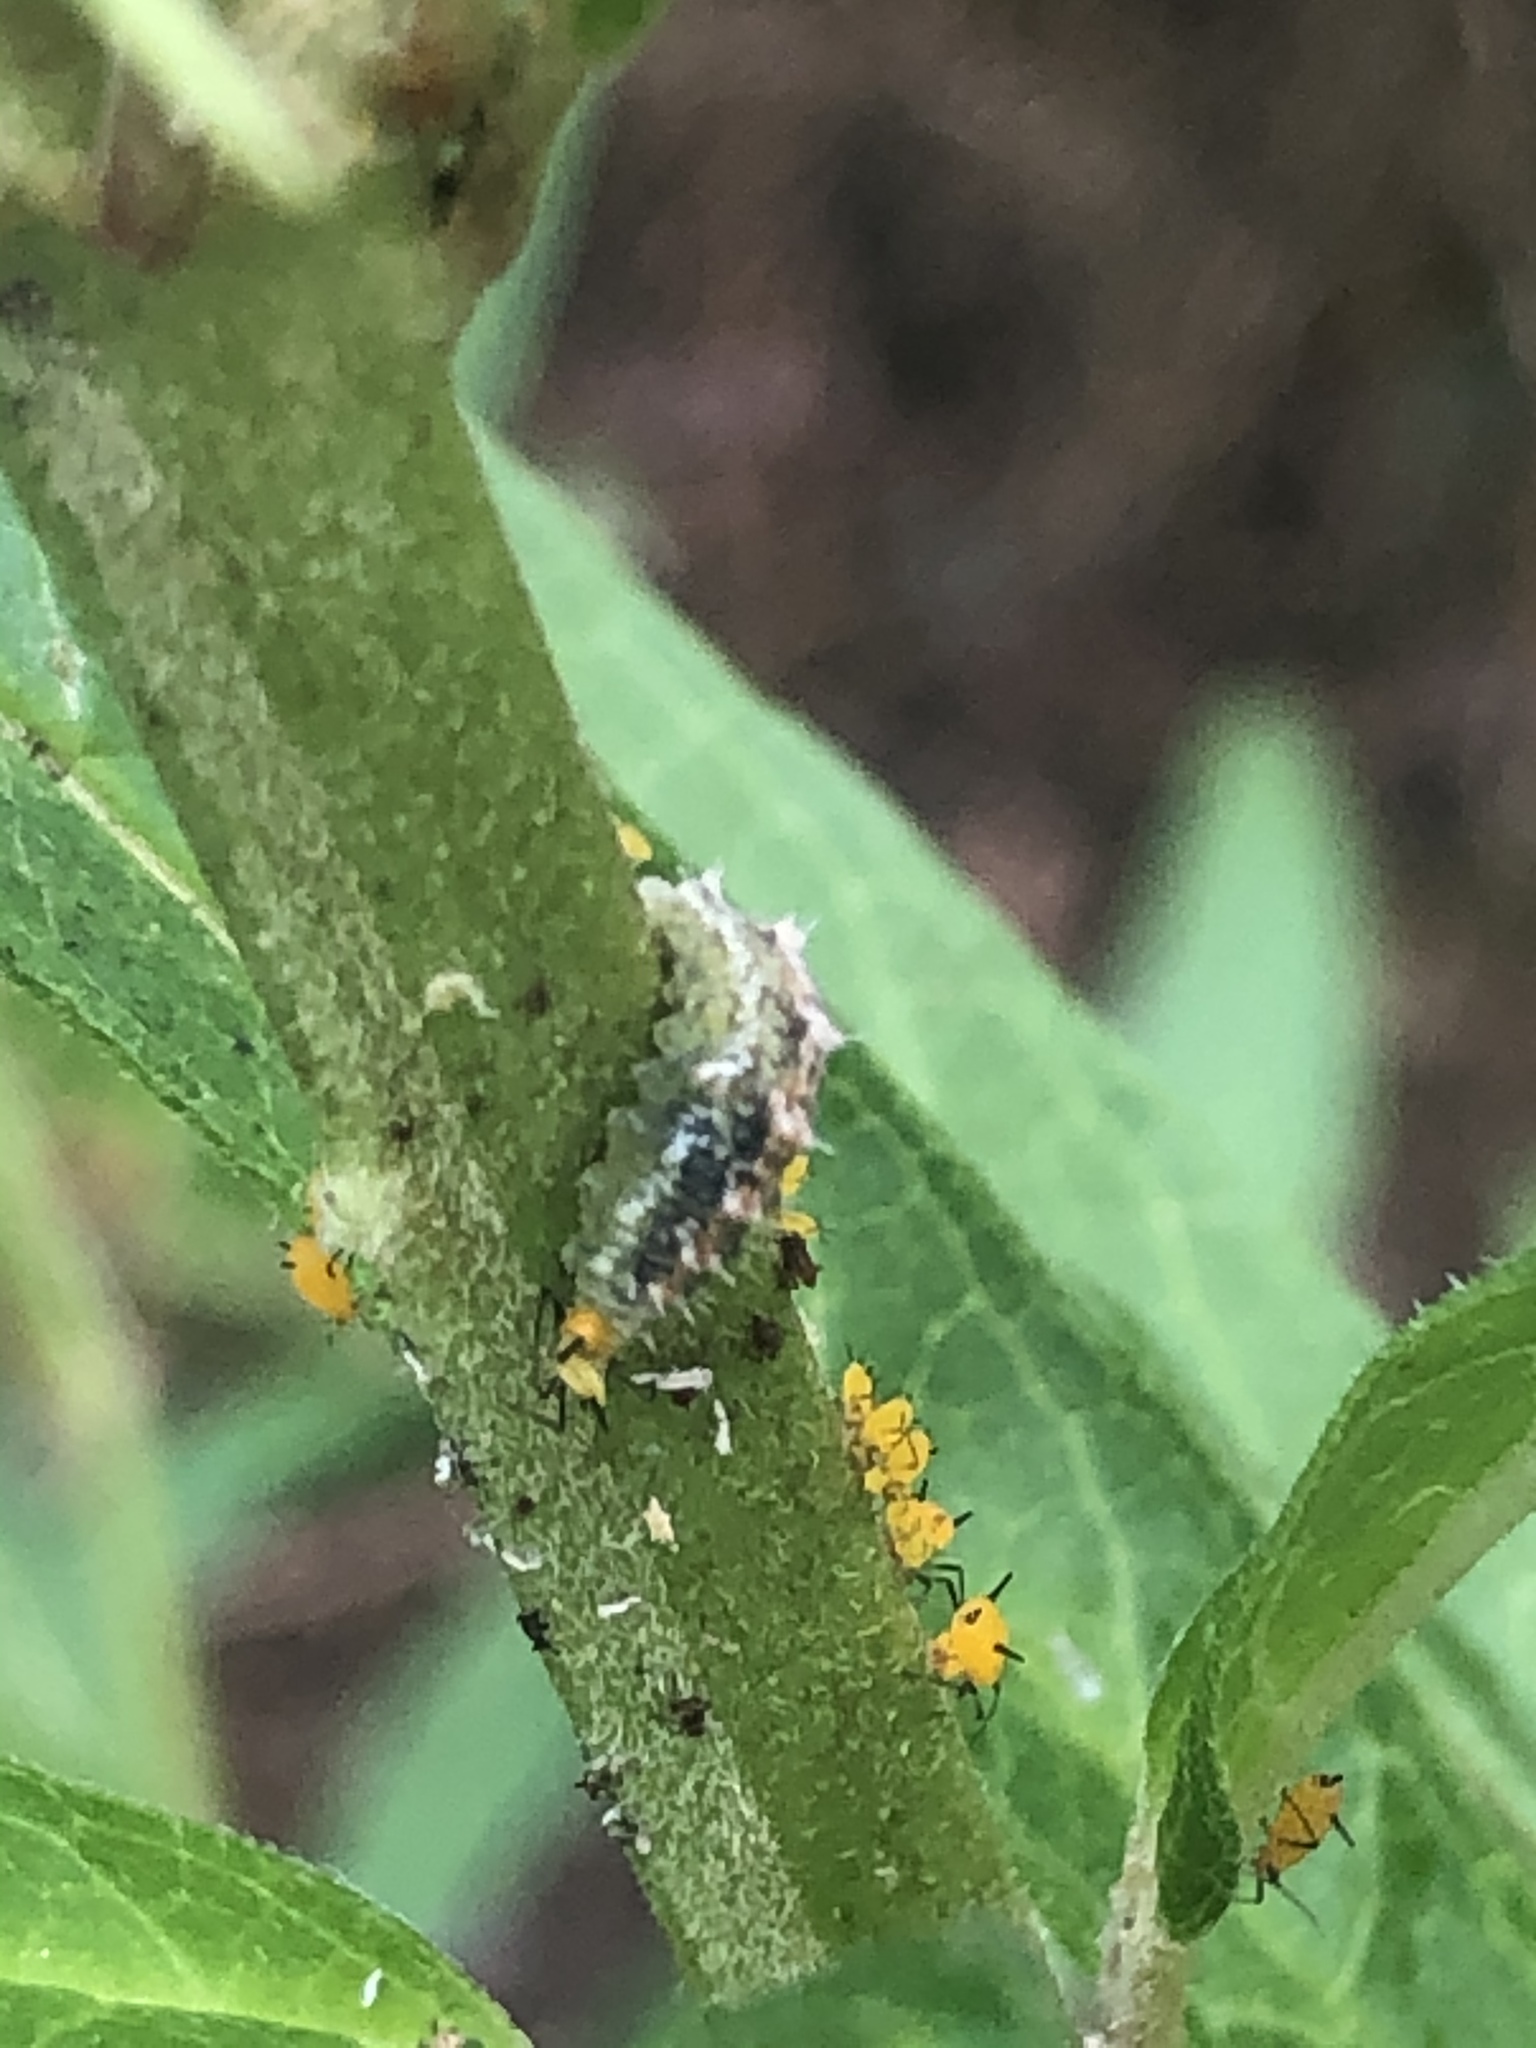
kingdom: Animalia
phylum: Arthropoda
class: Insecta
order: Diptera
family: Syrphidae
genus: Dioprosopa
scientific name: Dioprosopa clavatus
